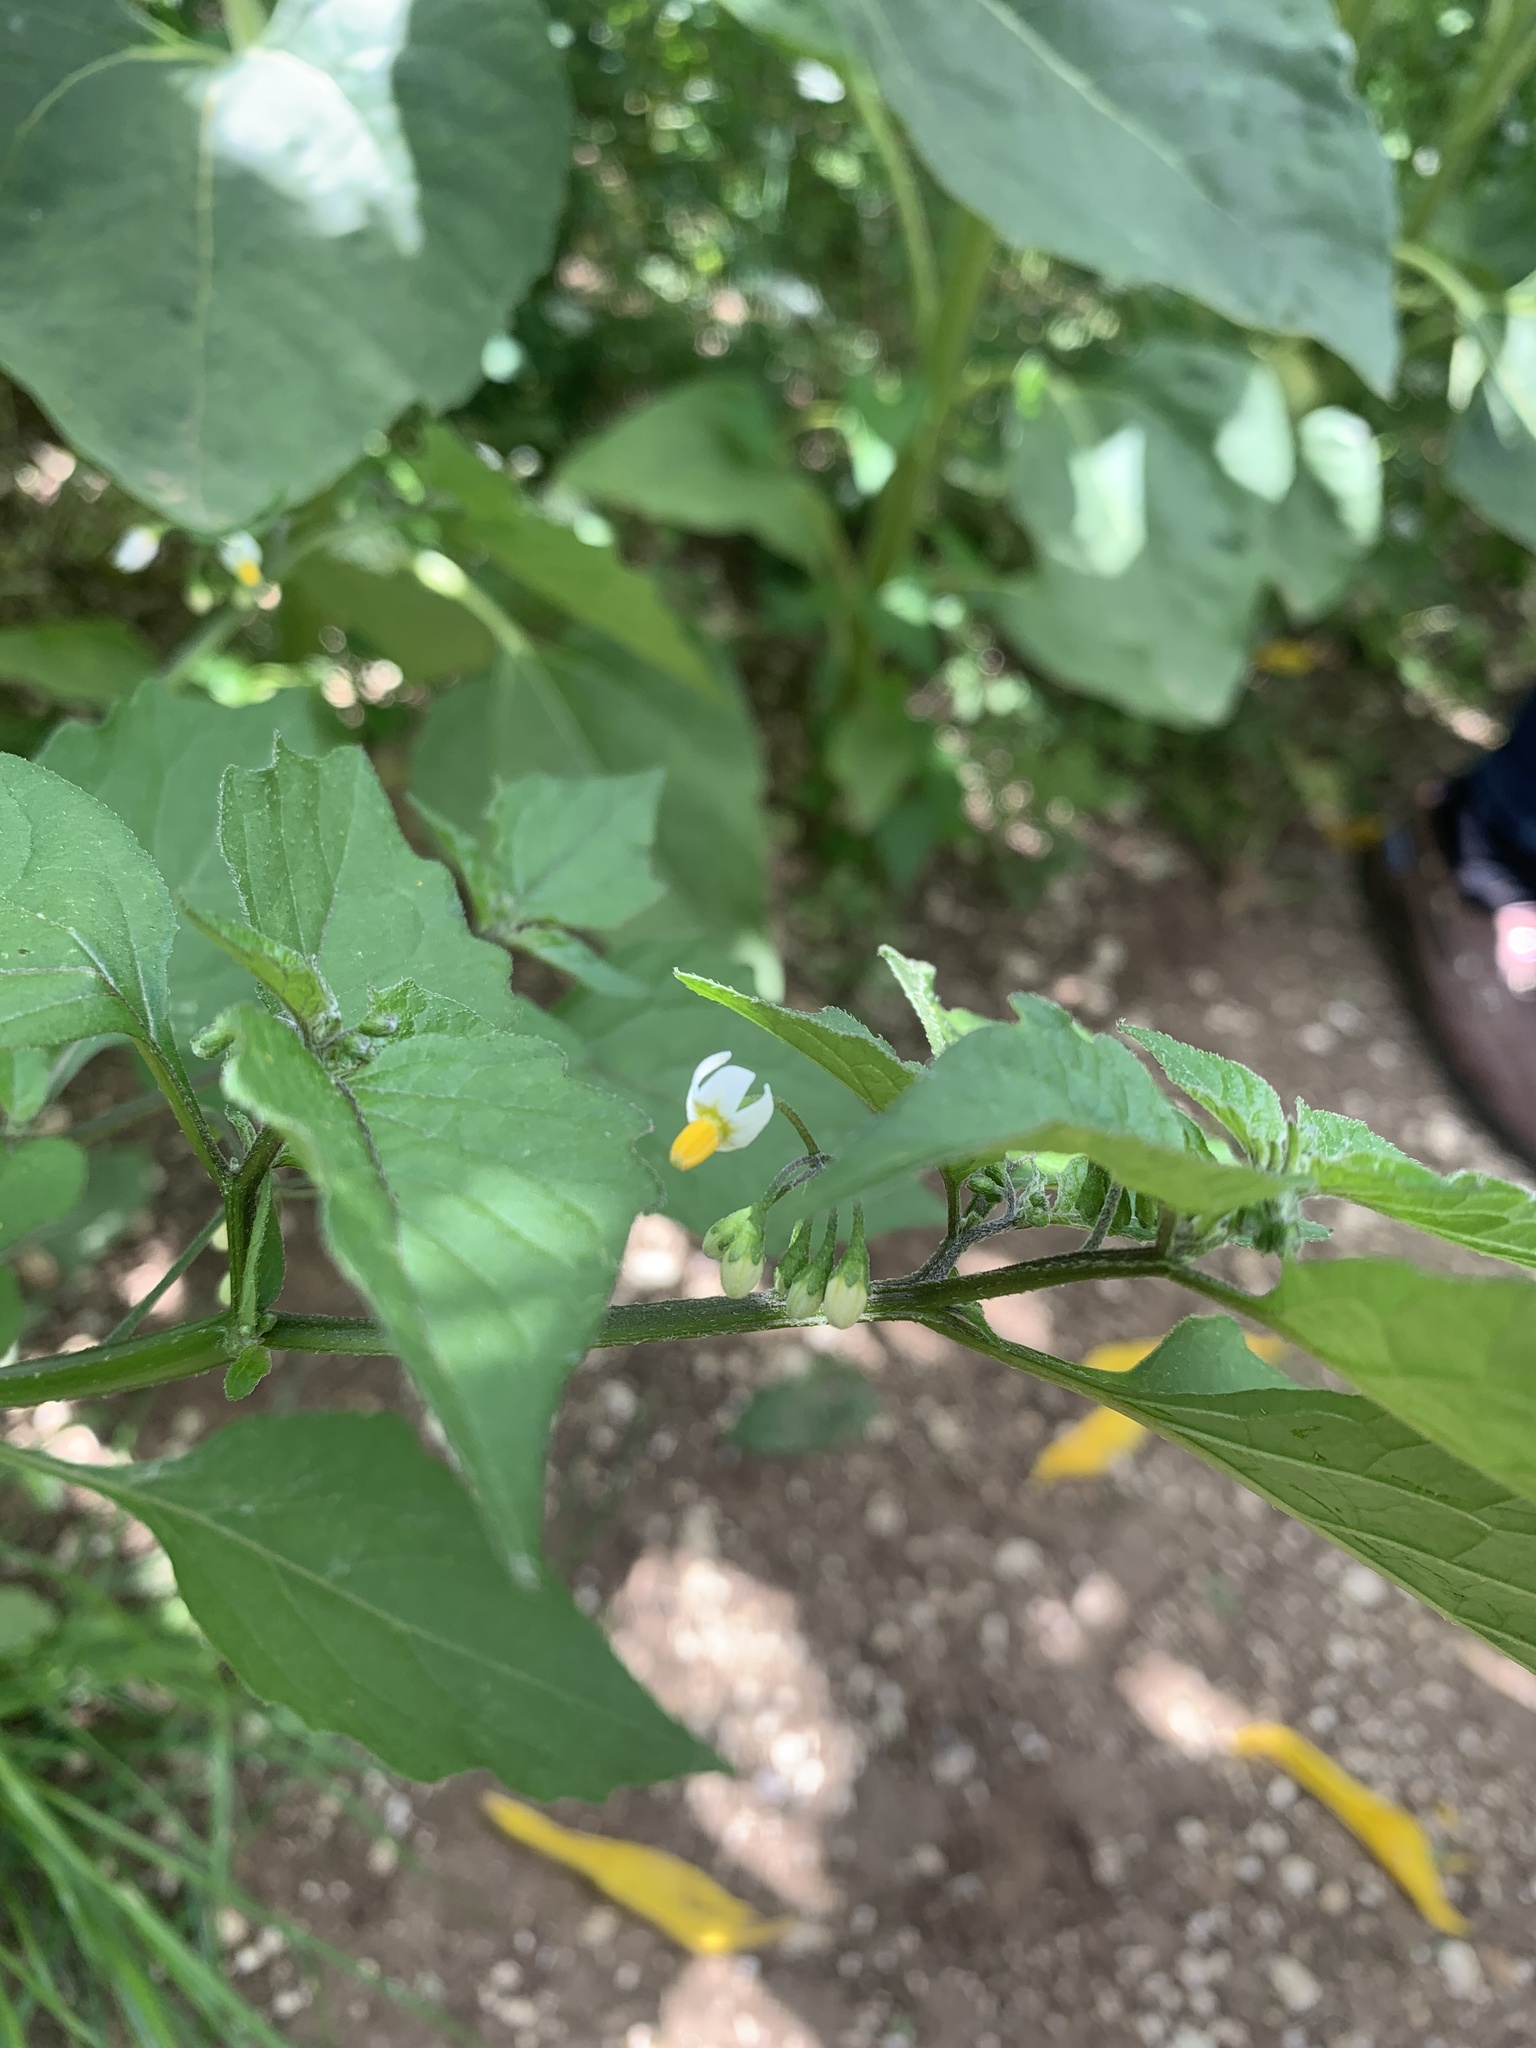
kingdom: Plantae
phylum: Tracheophyta
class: Magnoliopsida
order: Solanales
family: Solanaceae
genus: Solanum
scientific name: Solanum nigrum
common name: Black nightshade
